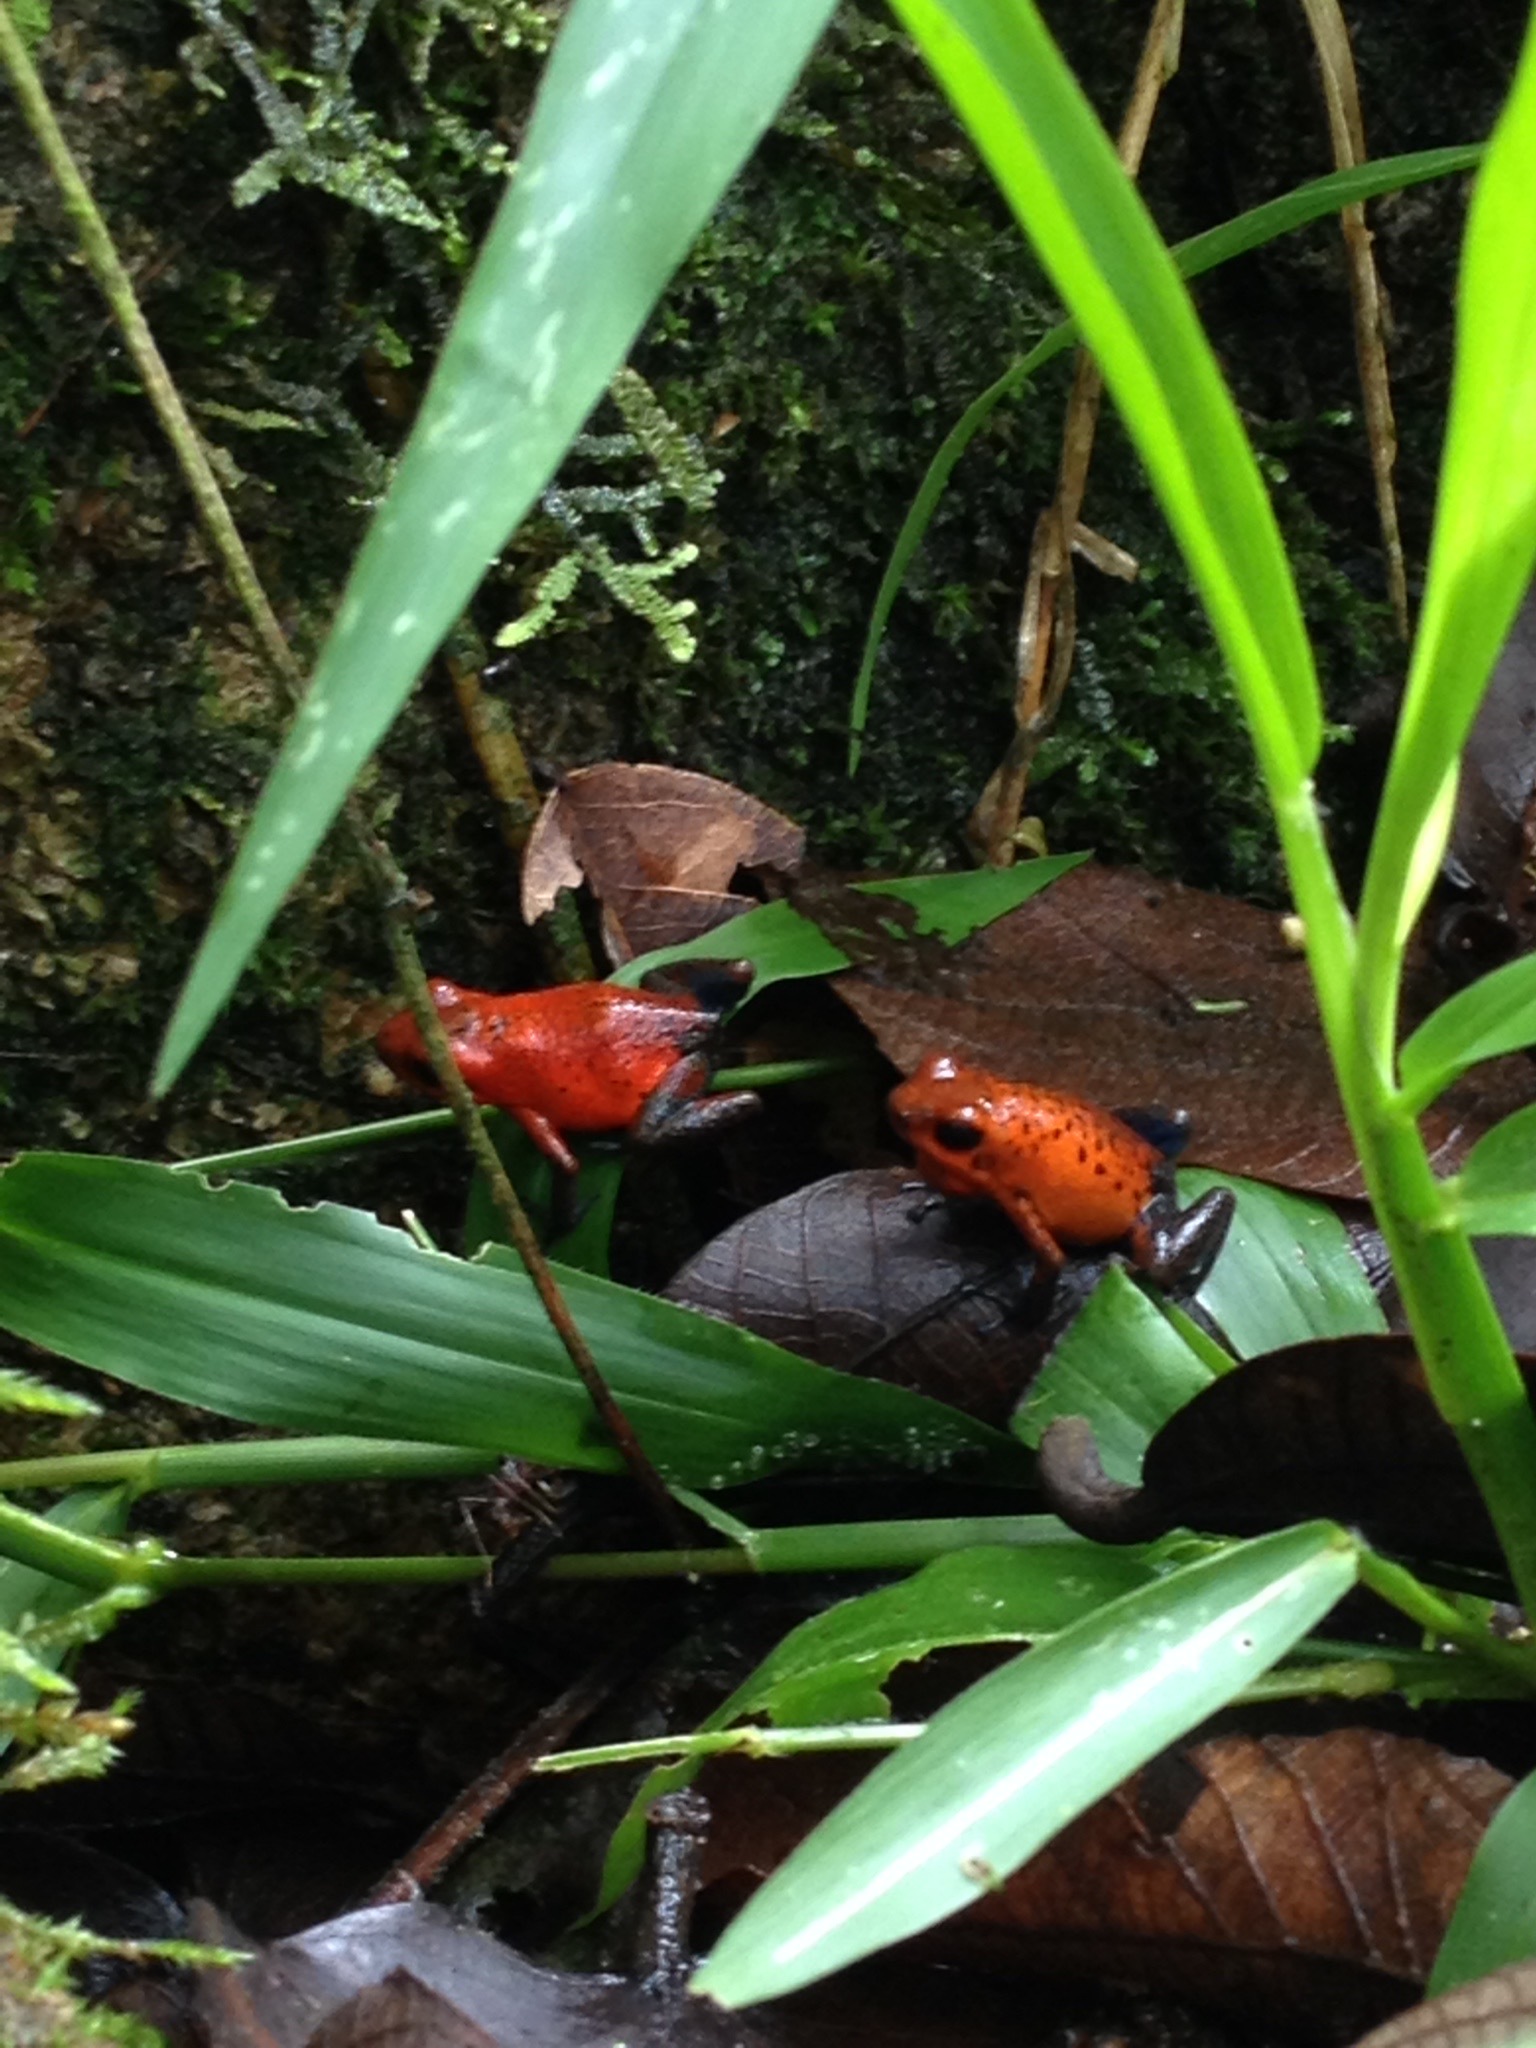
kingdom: Animalia
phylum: Chordata
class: Amphibia
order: Anura
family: Dendrobatidae
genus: Oophaga
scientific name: Oophaga pumilio
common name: Flaming poison frog
